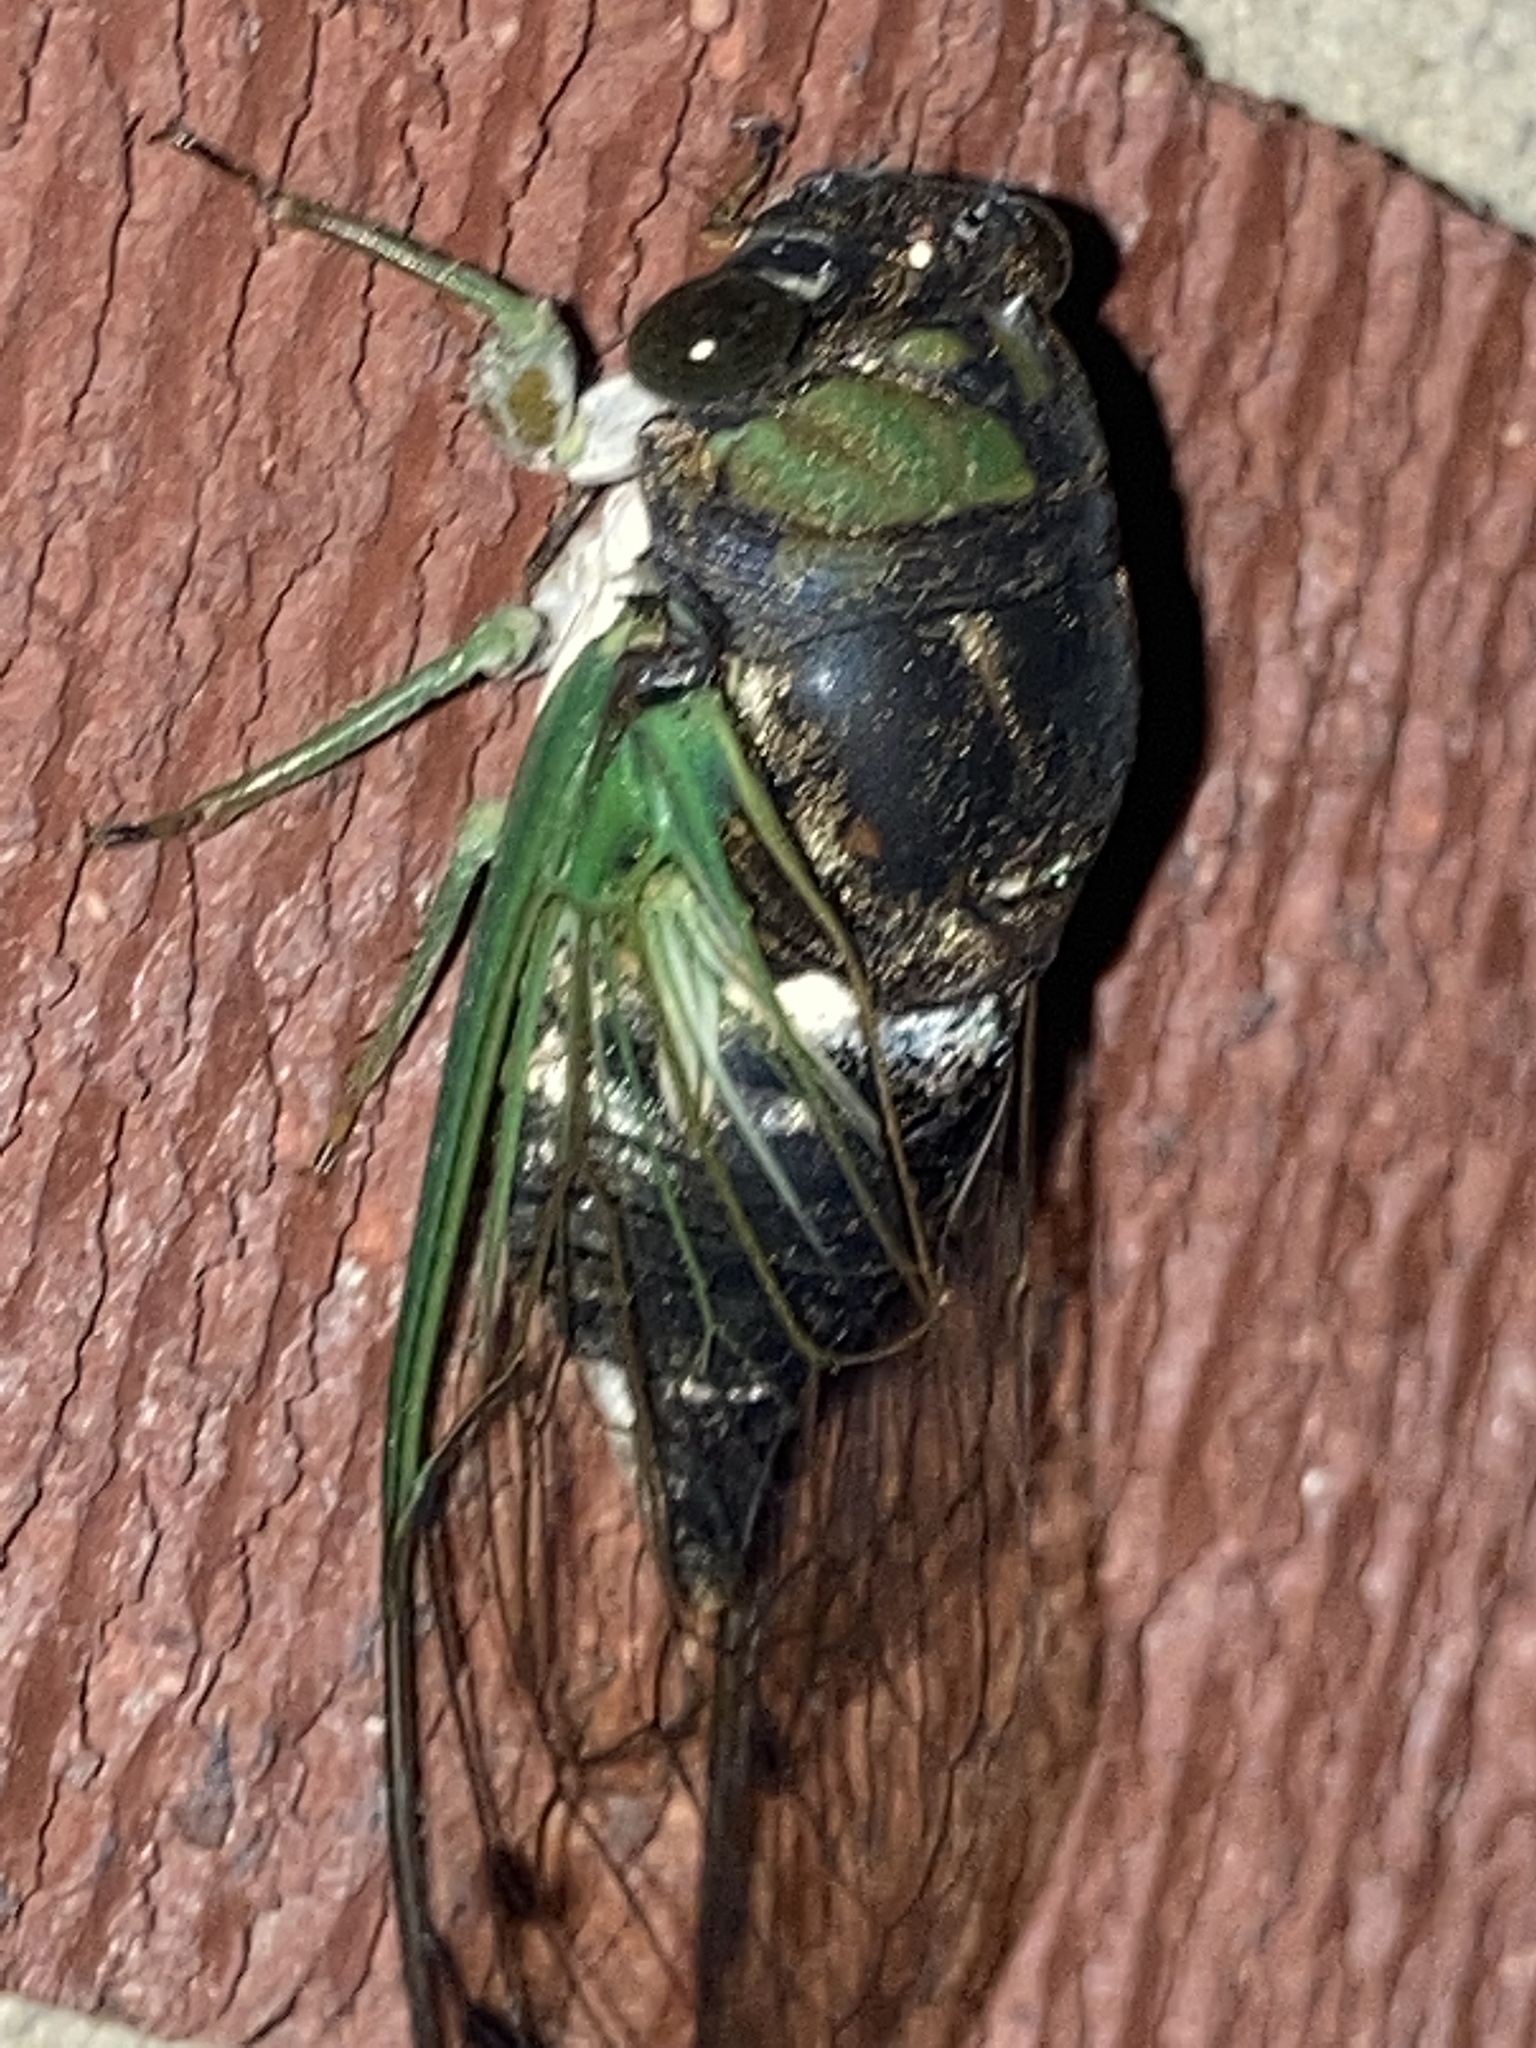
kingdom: Animalia
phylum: Arthropoda
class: Insecta
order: Hemiptera
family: Cicadidae
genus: Neotibicen
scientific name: Neotibicen tibicen
